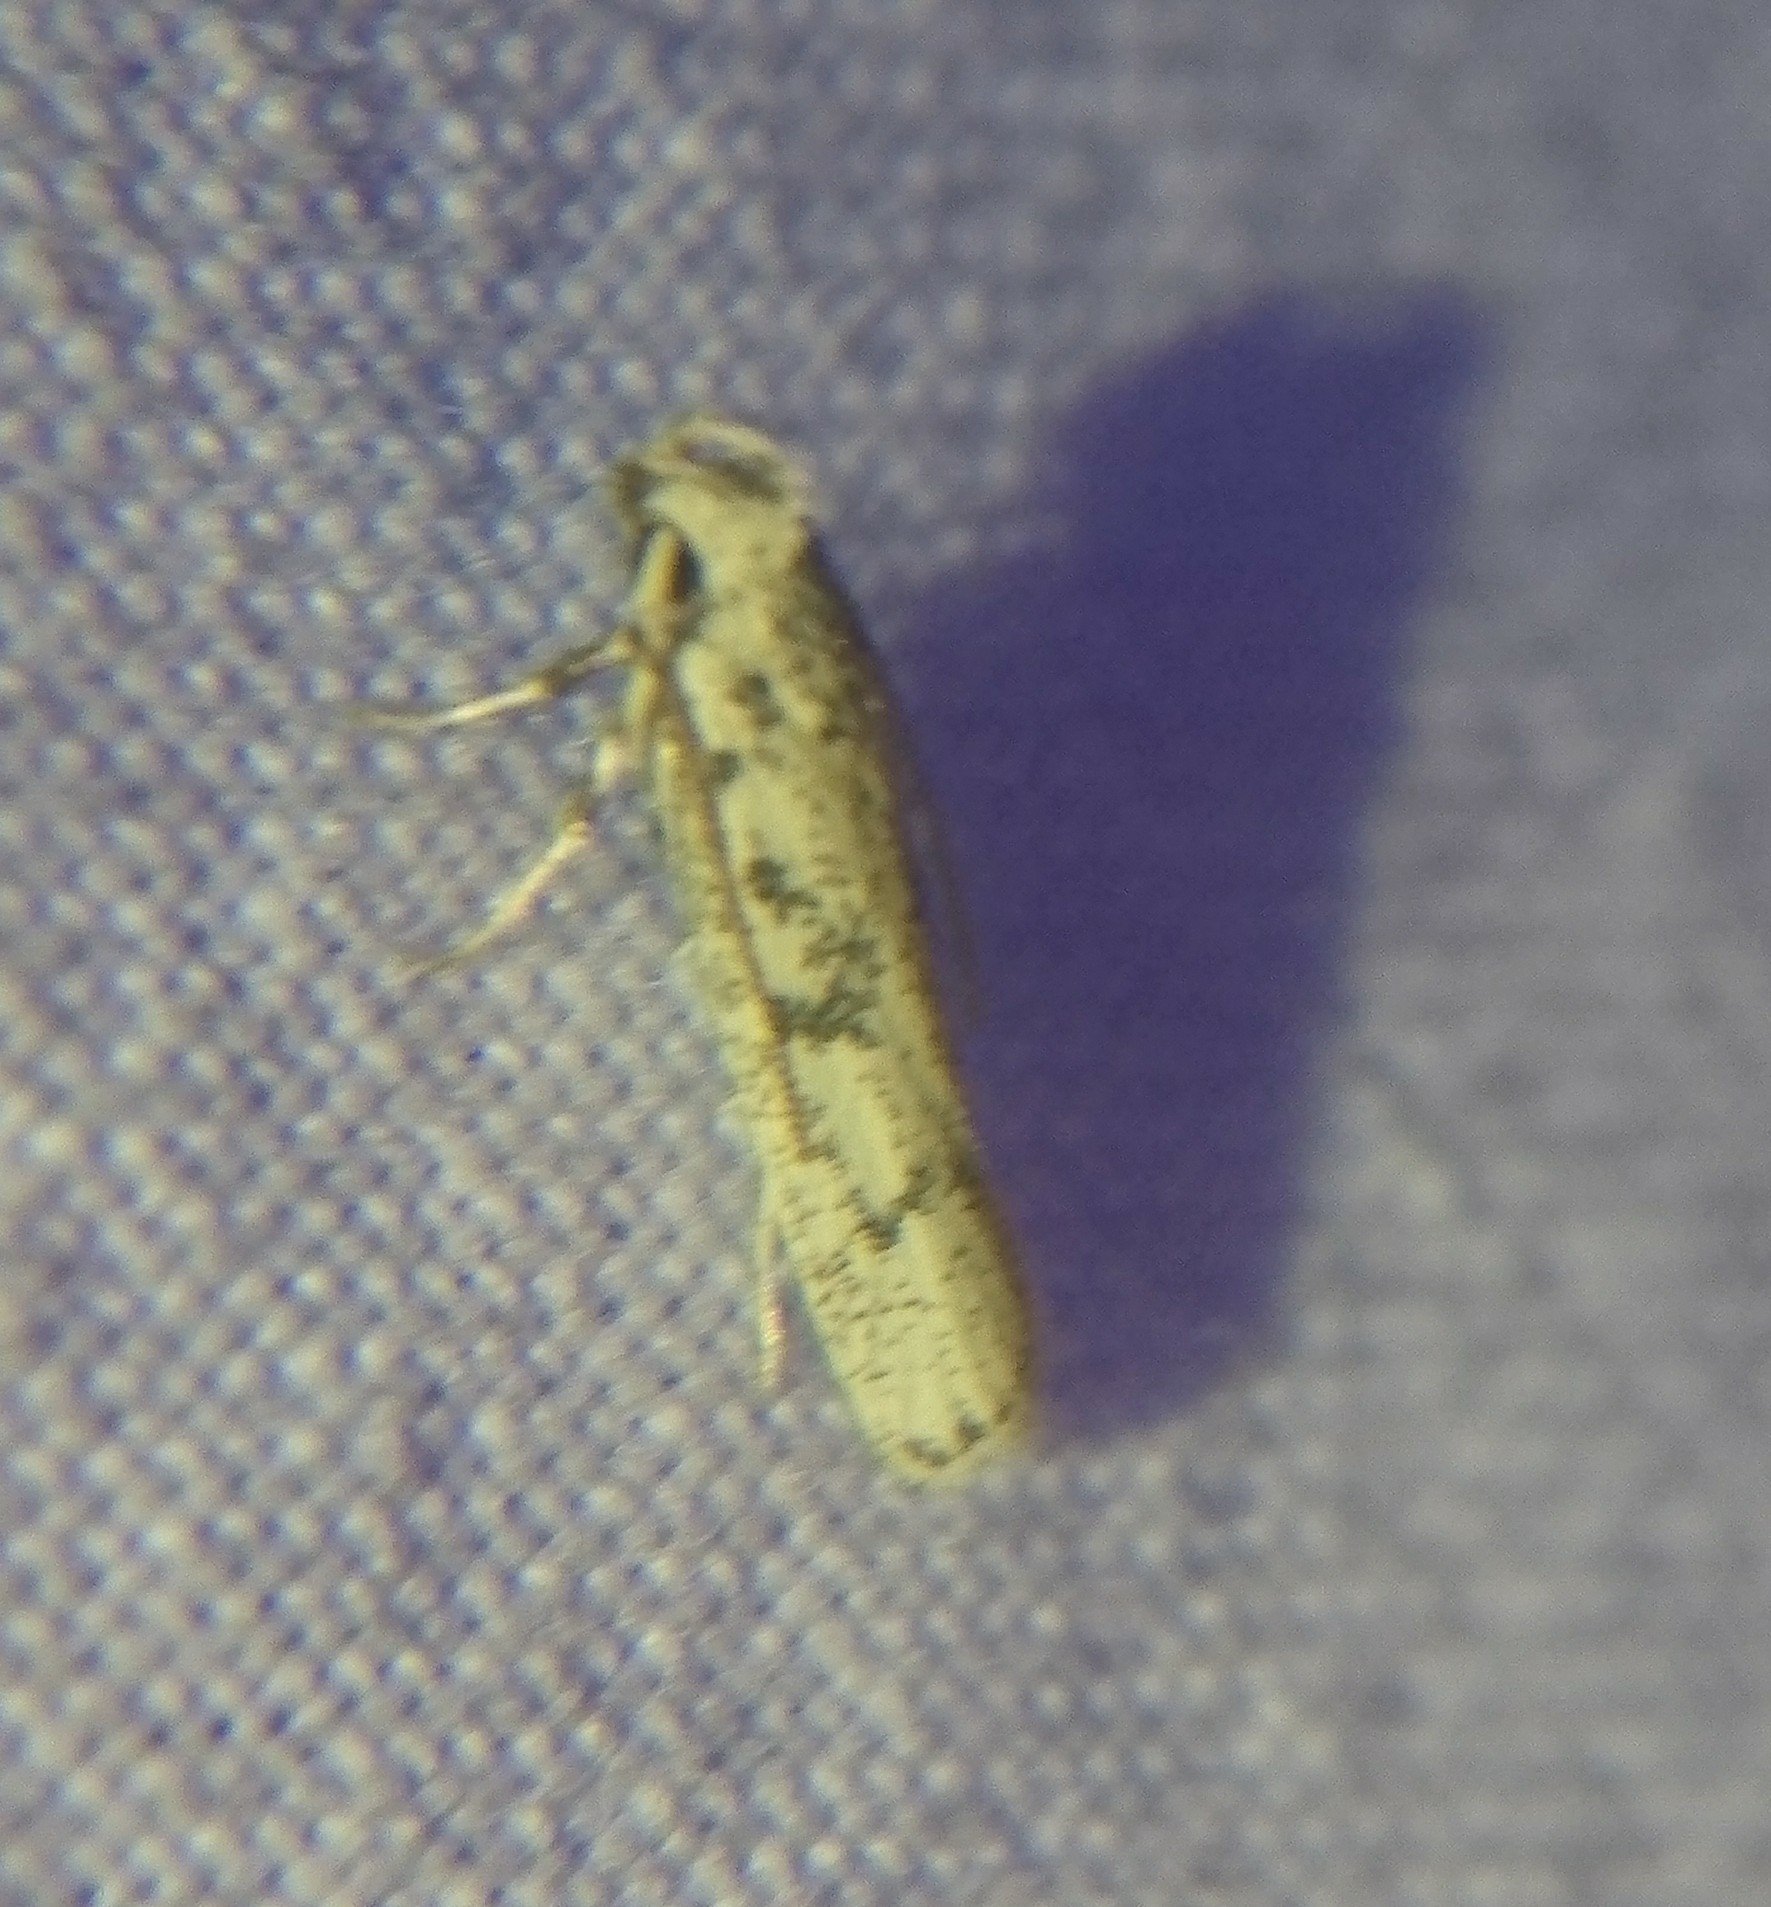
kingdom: Animalia
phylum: Arthropoda
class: Insecta
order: Lepidoptera
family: Autostichidae
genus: Glyphidocera
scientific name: Glyphidocera lactiflosella
